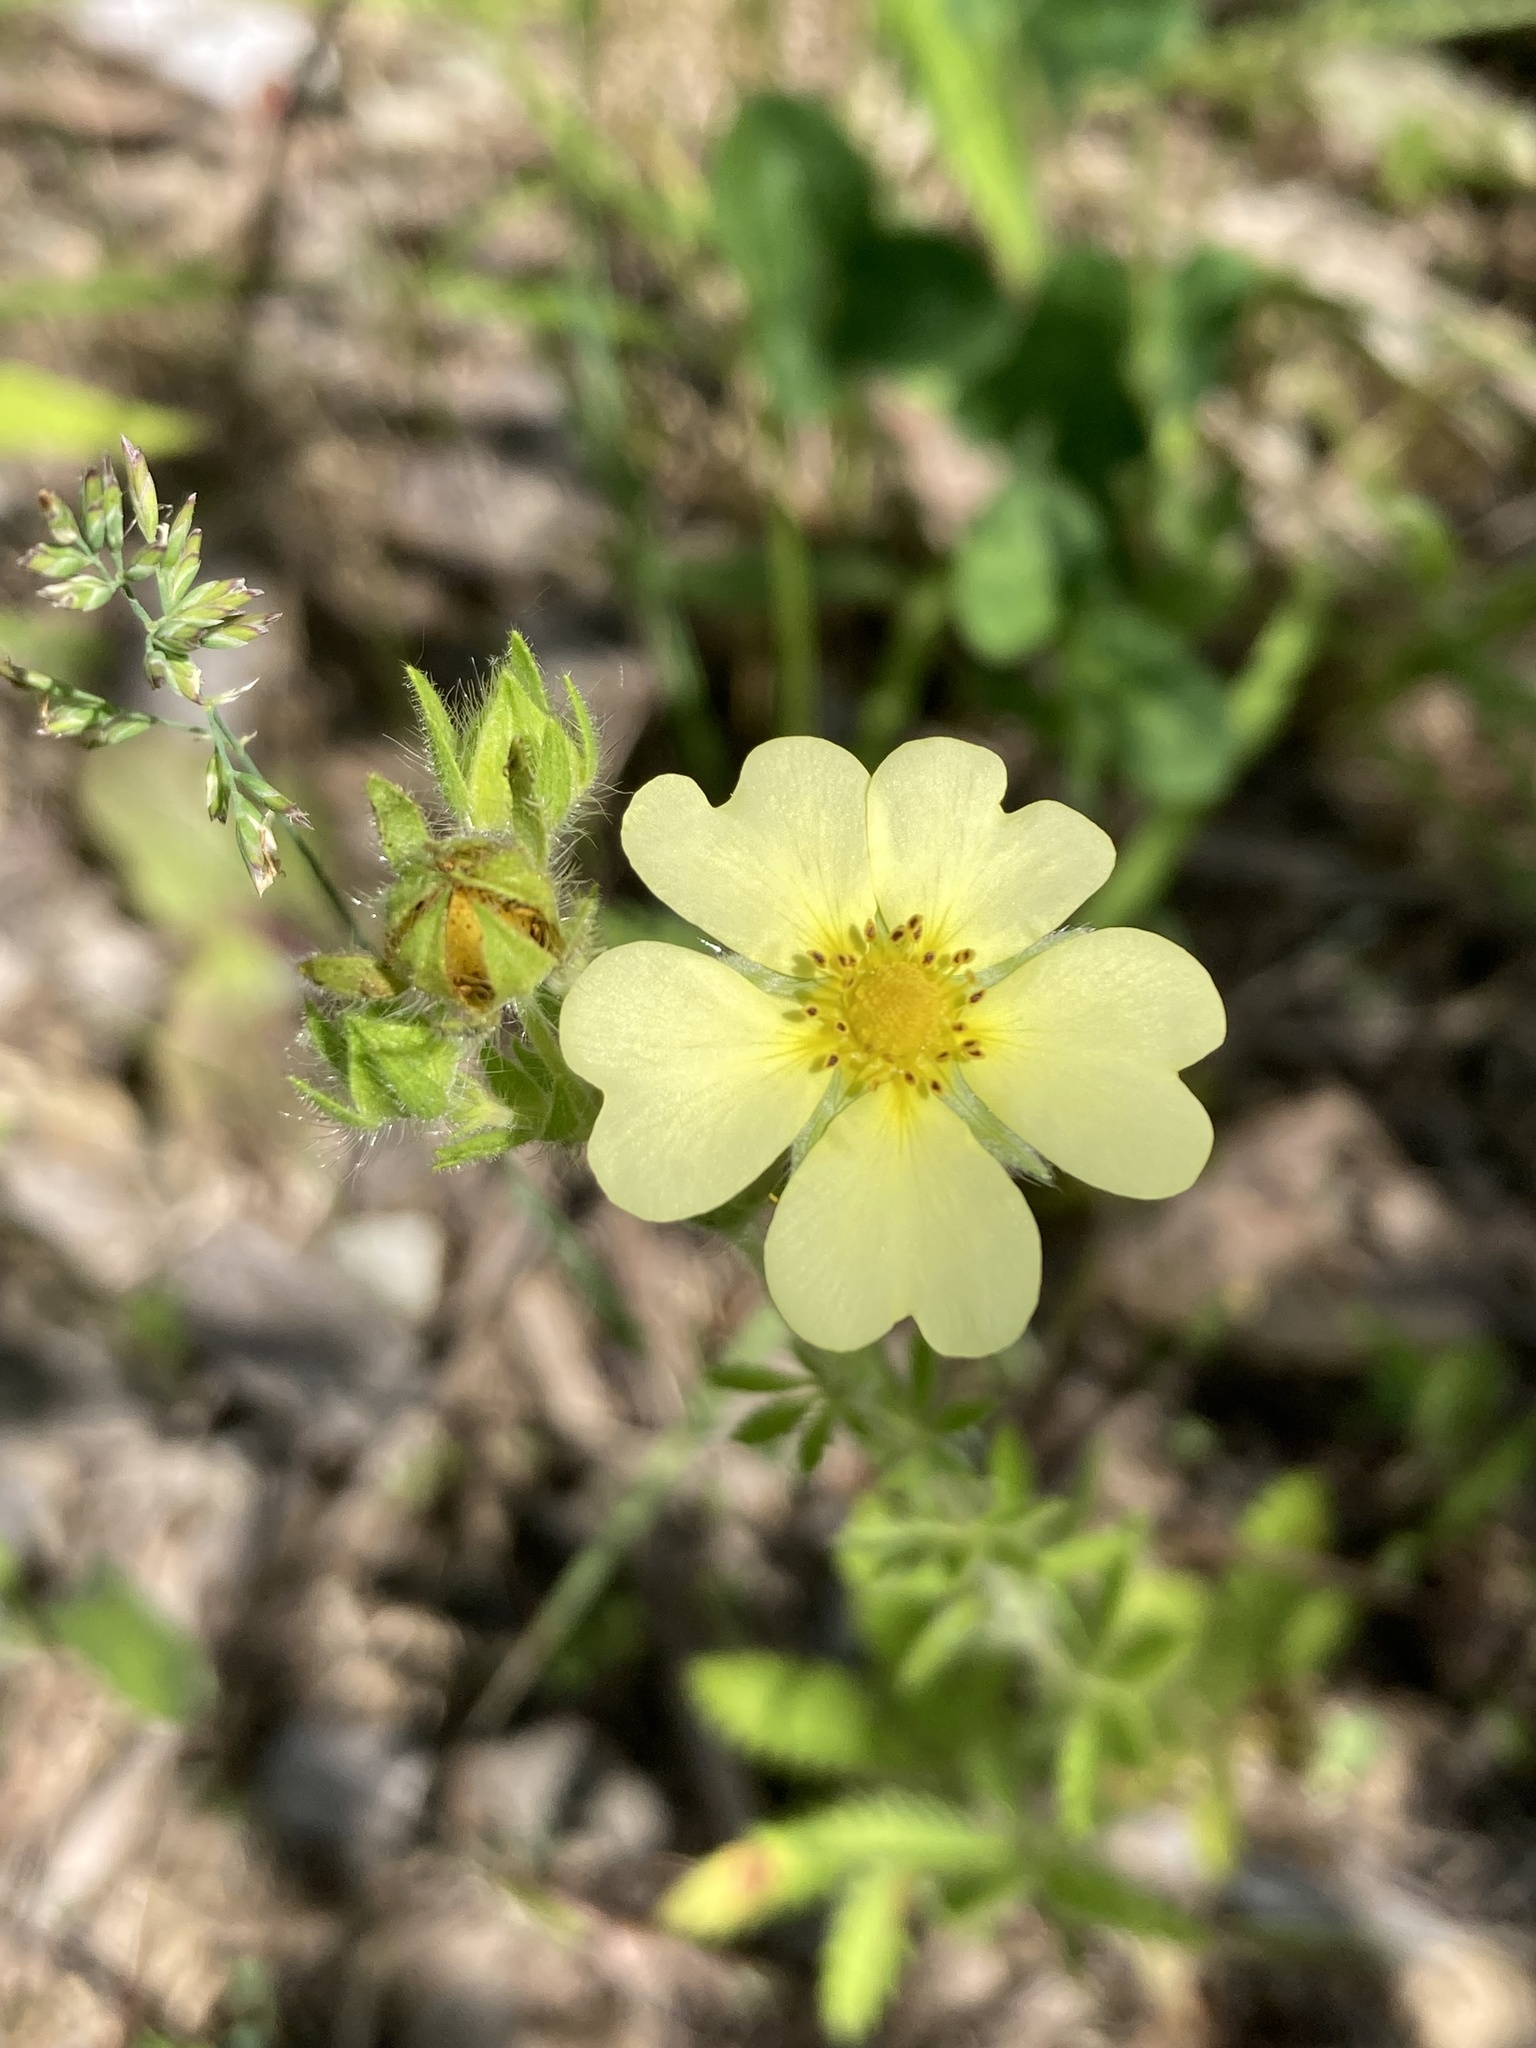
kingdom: Plantae
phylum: Tracheophyta
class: Magnoliopsida
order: Rosales
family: Rosaceae
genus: Potentilla
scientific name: Potentilla recta
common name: Sulphur cinquefoil
